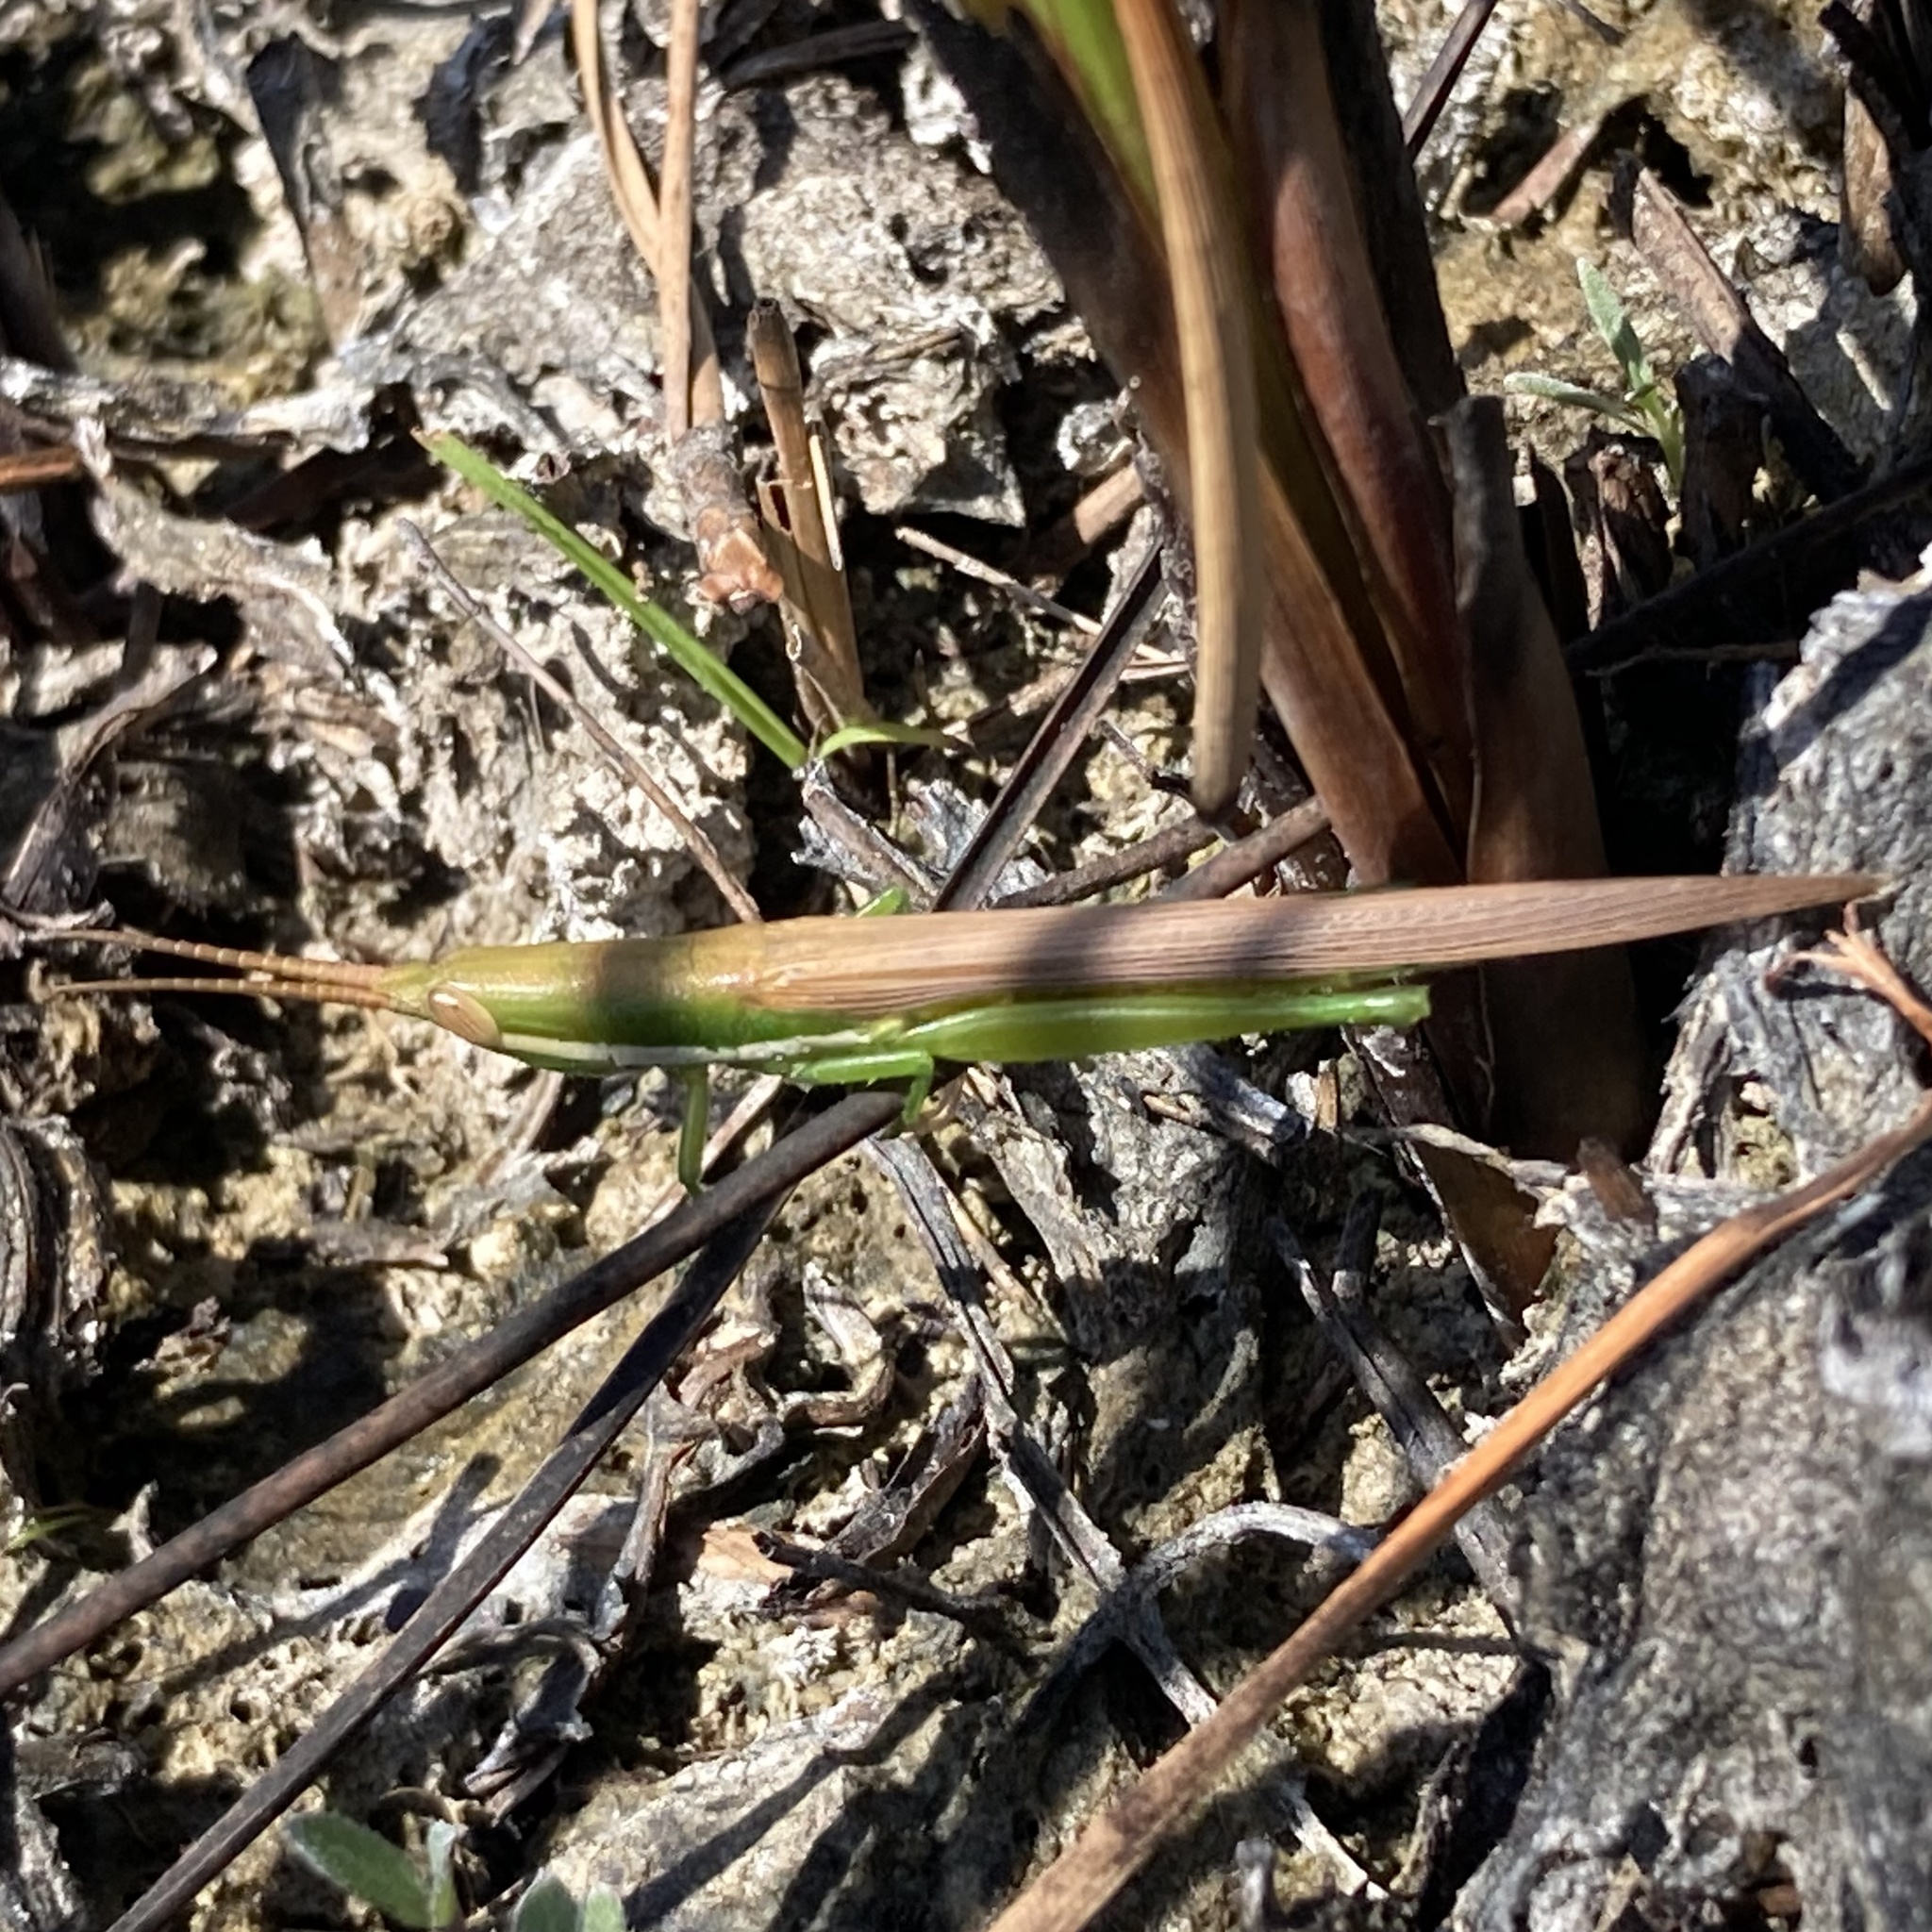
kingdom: Animalia
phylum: Arthropoda
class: Insecta
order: Orthoptera
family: Acrididae
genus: Leptysma
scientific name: Leptysma marginicollis
